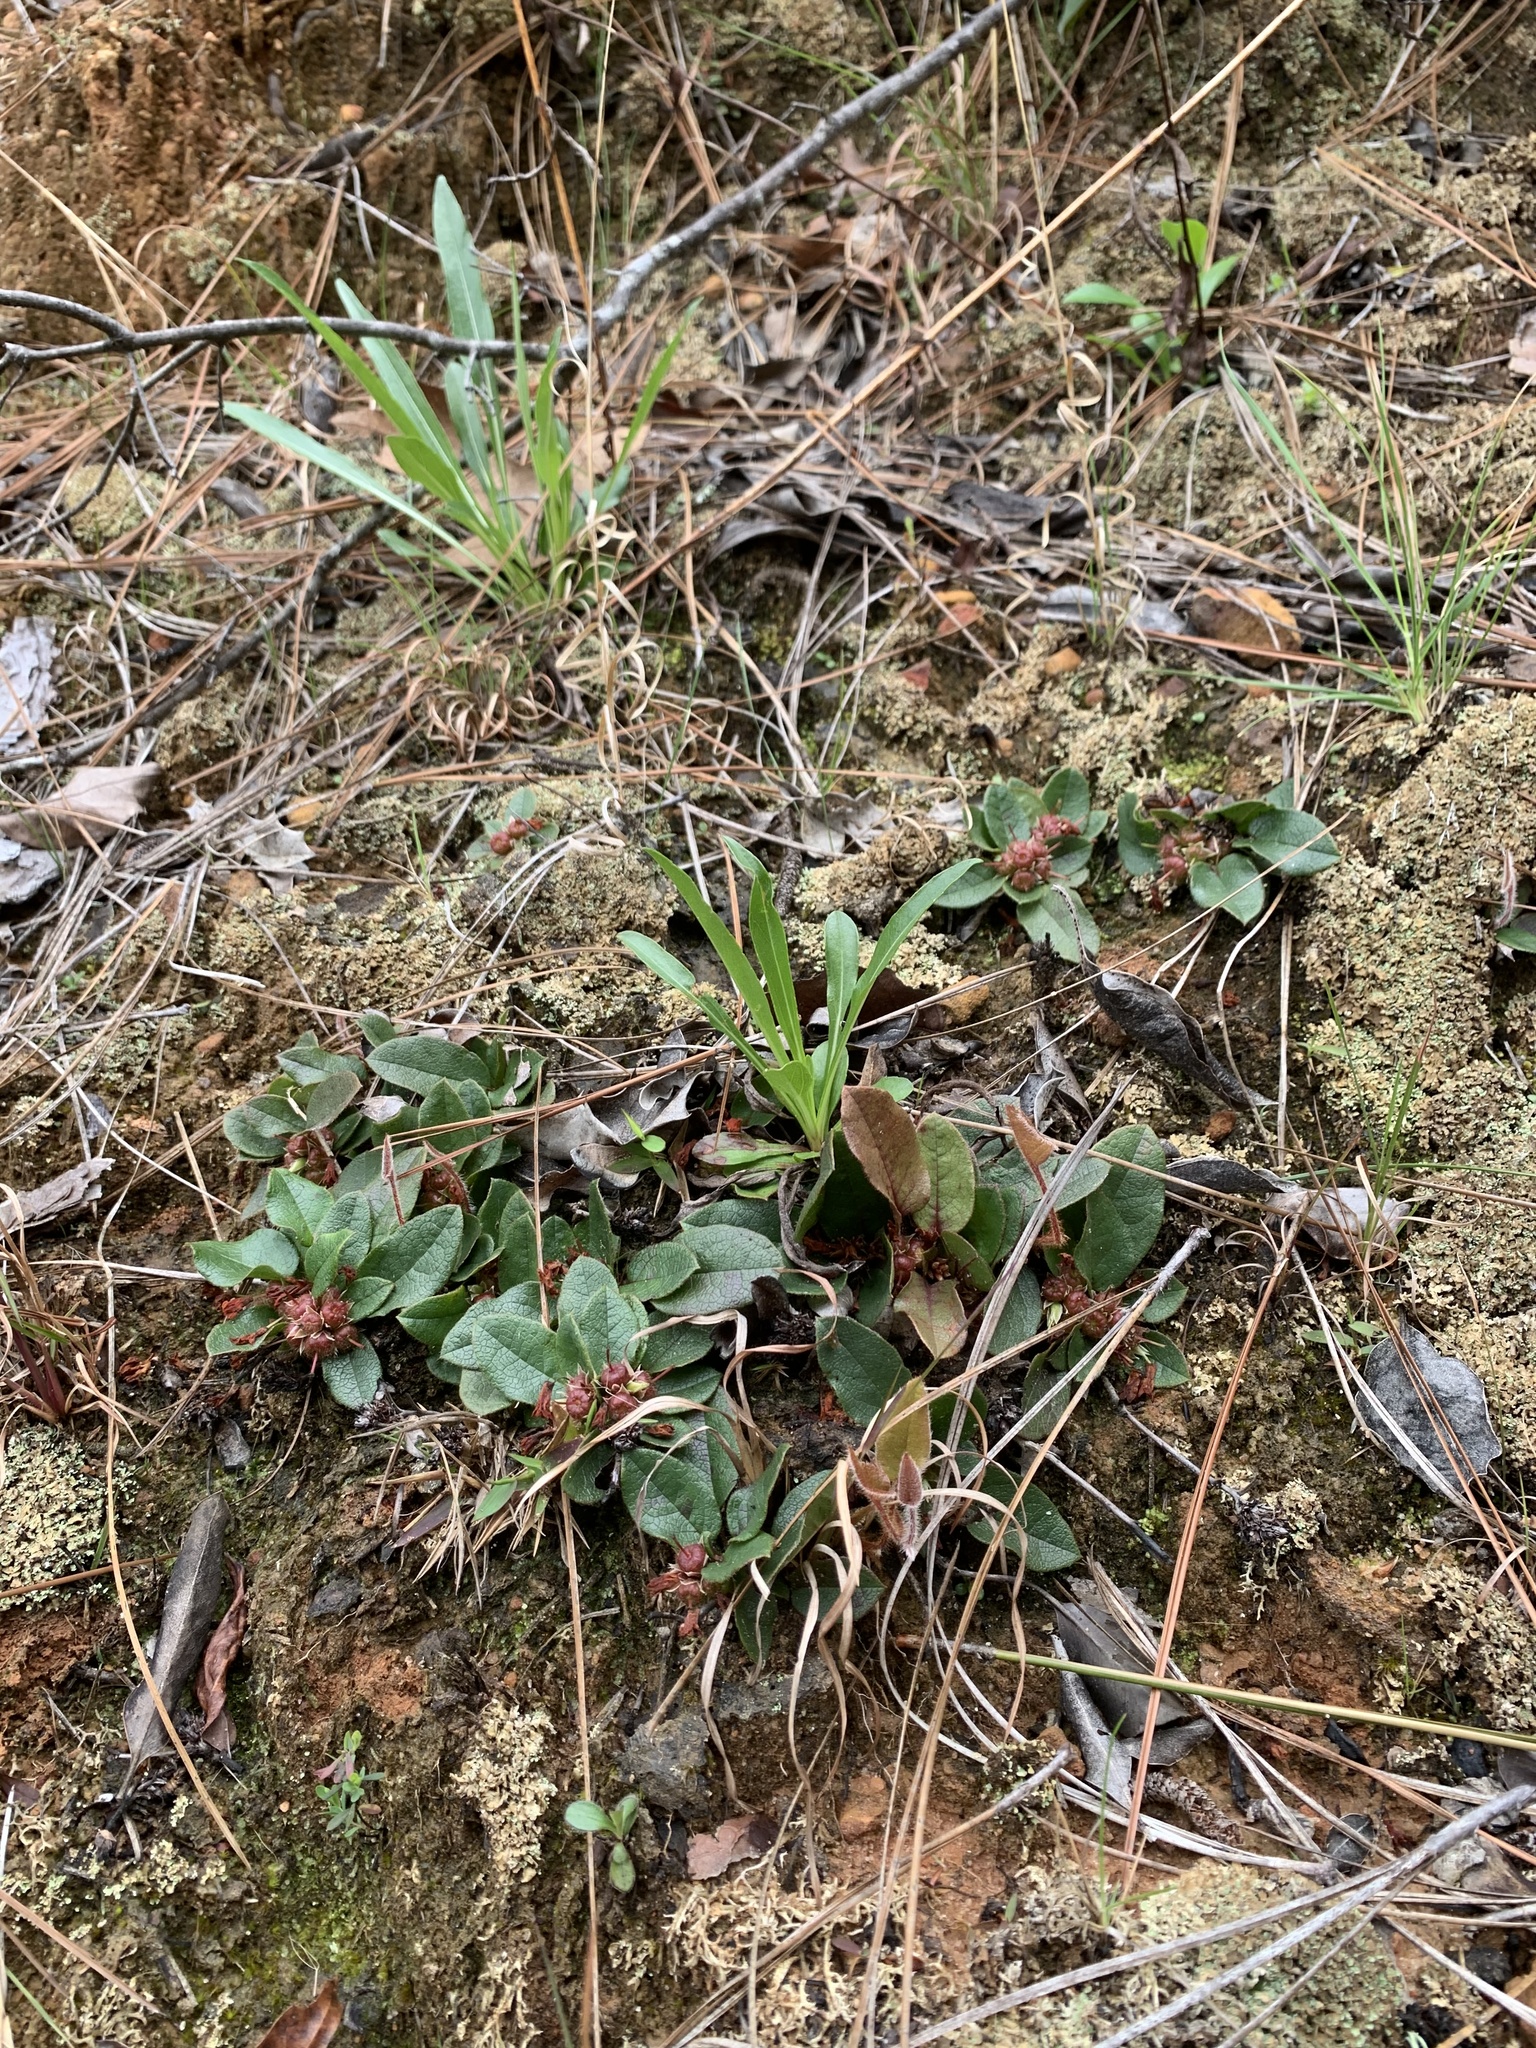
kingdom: Plantae
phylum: Tracheophyta
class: Magnoliopsida
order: Ericales
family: Ericaceae
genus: Epigaea
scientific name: Epigaea repens
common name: Gravelroot
